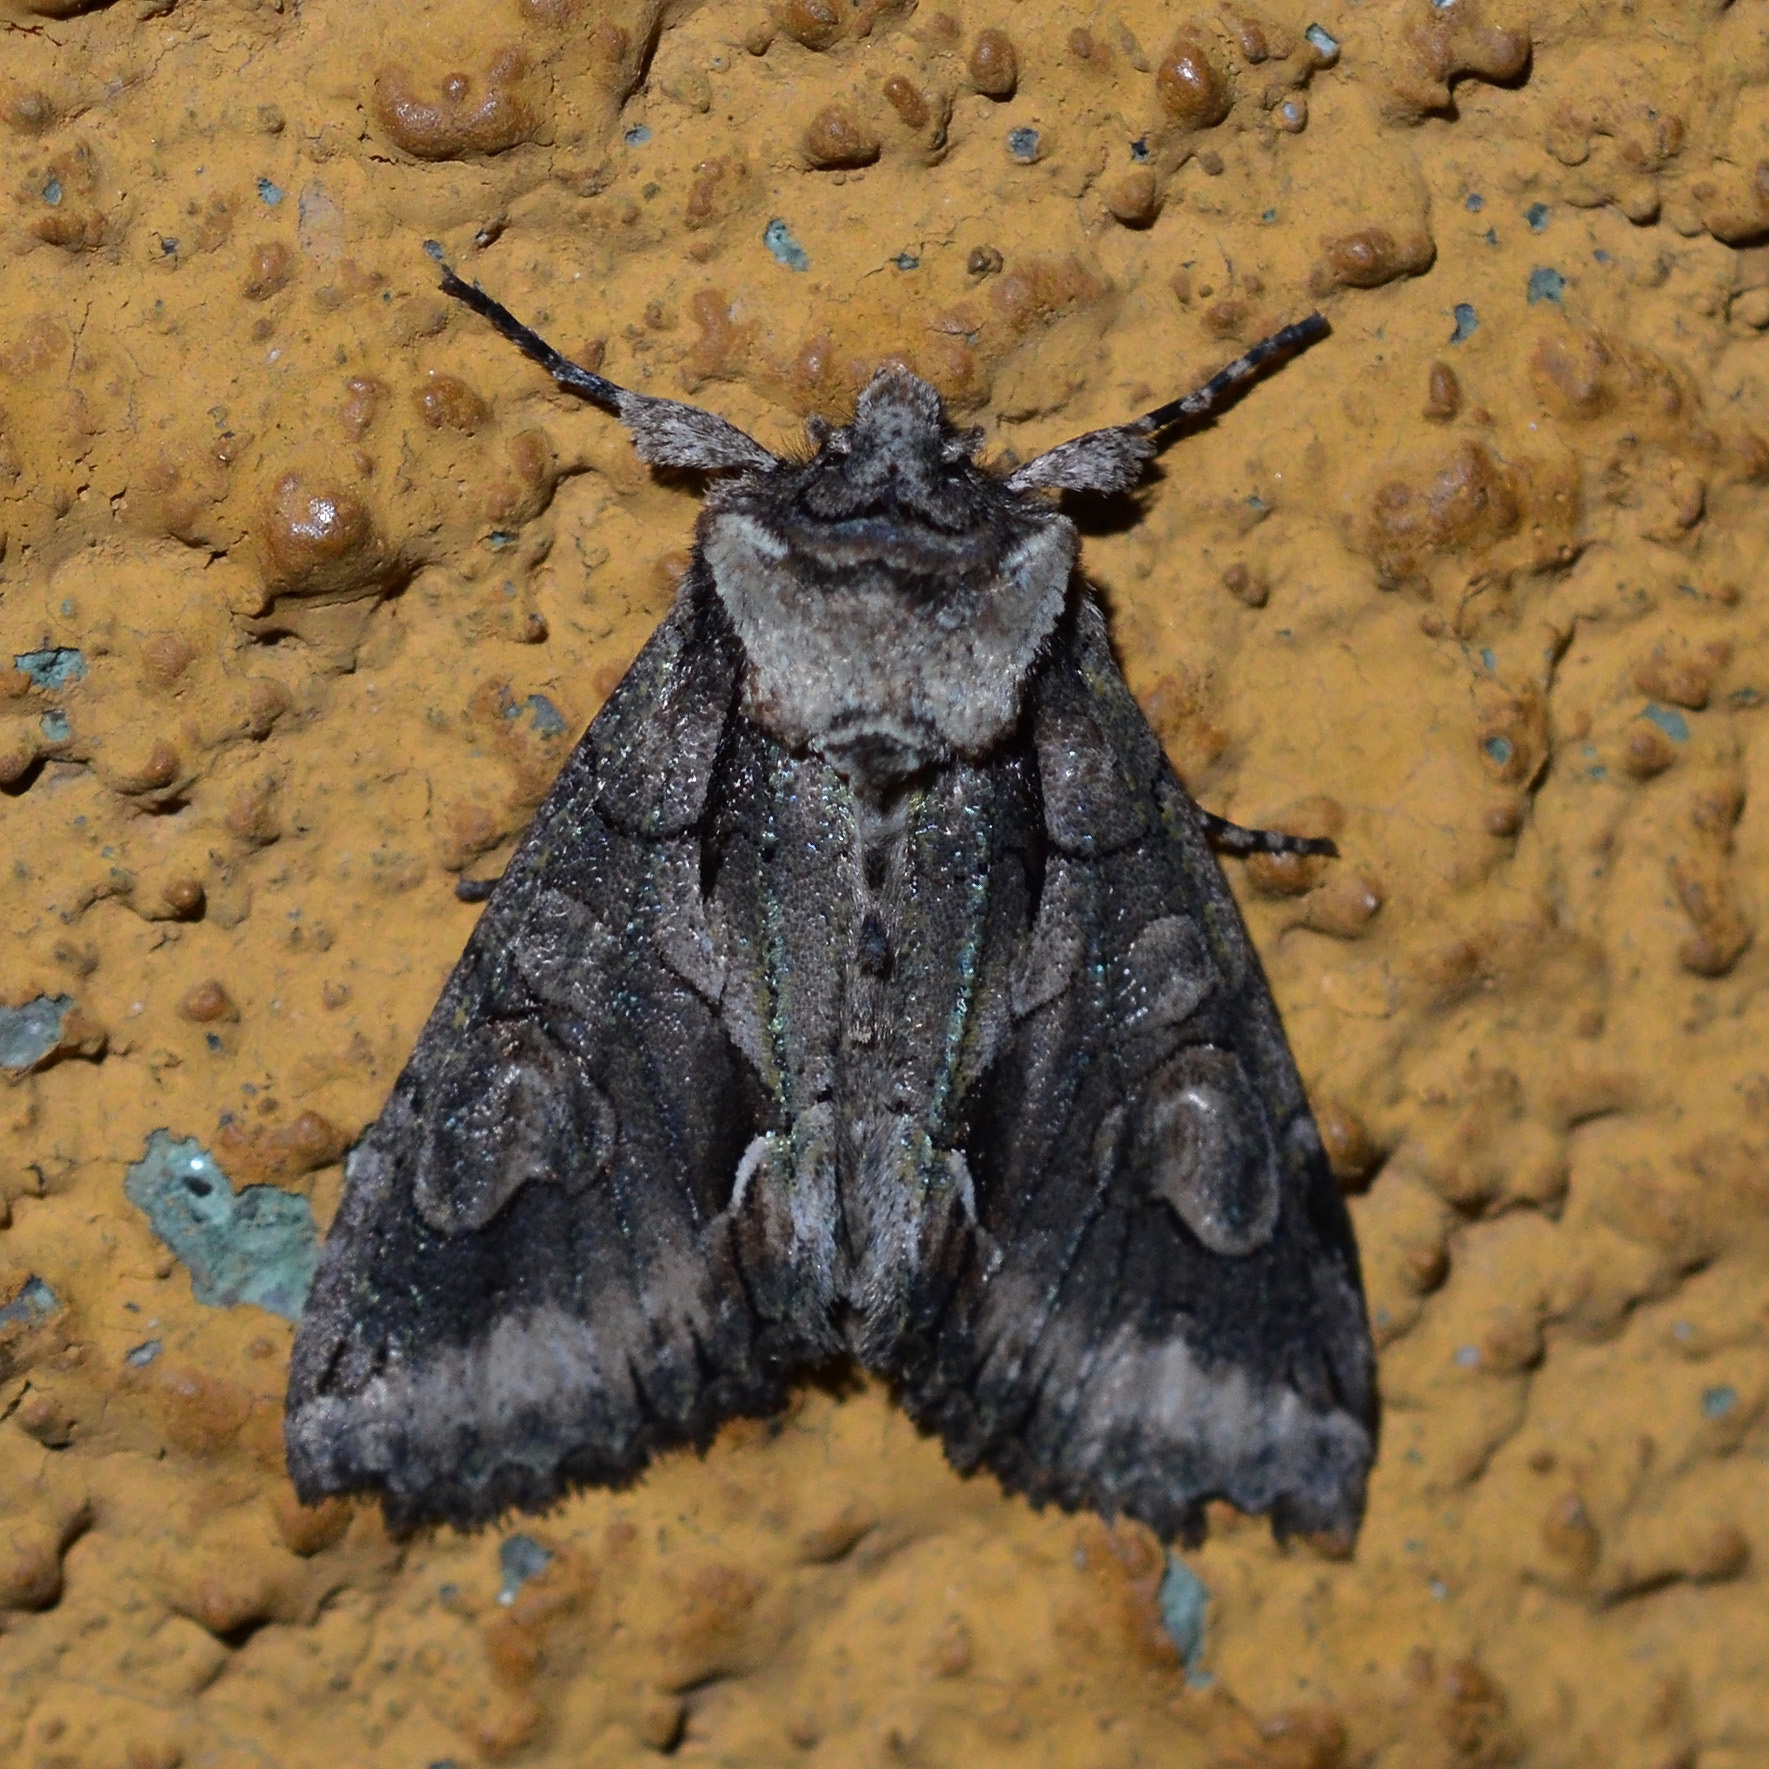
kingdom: Animalia
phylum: Arthropoda
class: Insecta
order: Lepidoptera
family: Noctuidae
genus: Allophyes
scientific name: Allophyes oxyacanthae
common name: Green-brindled crescent
